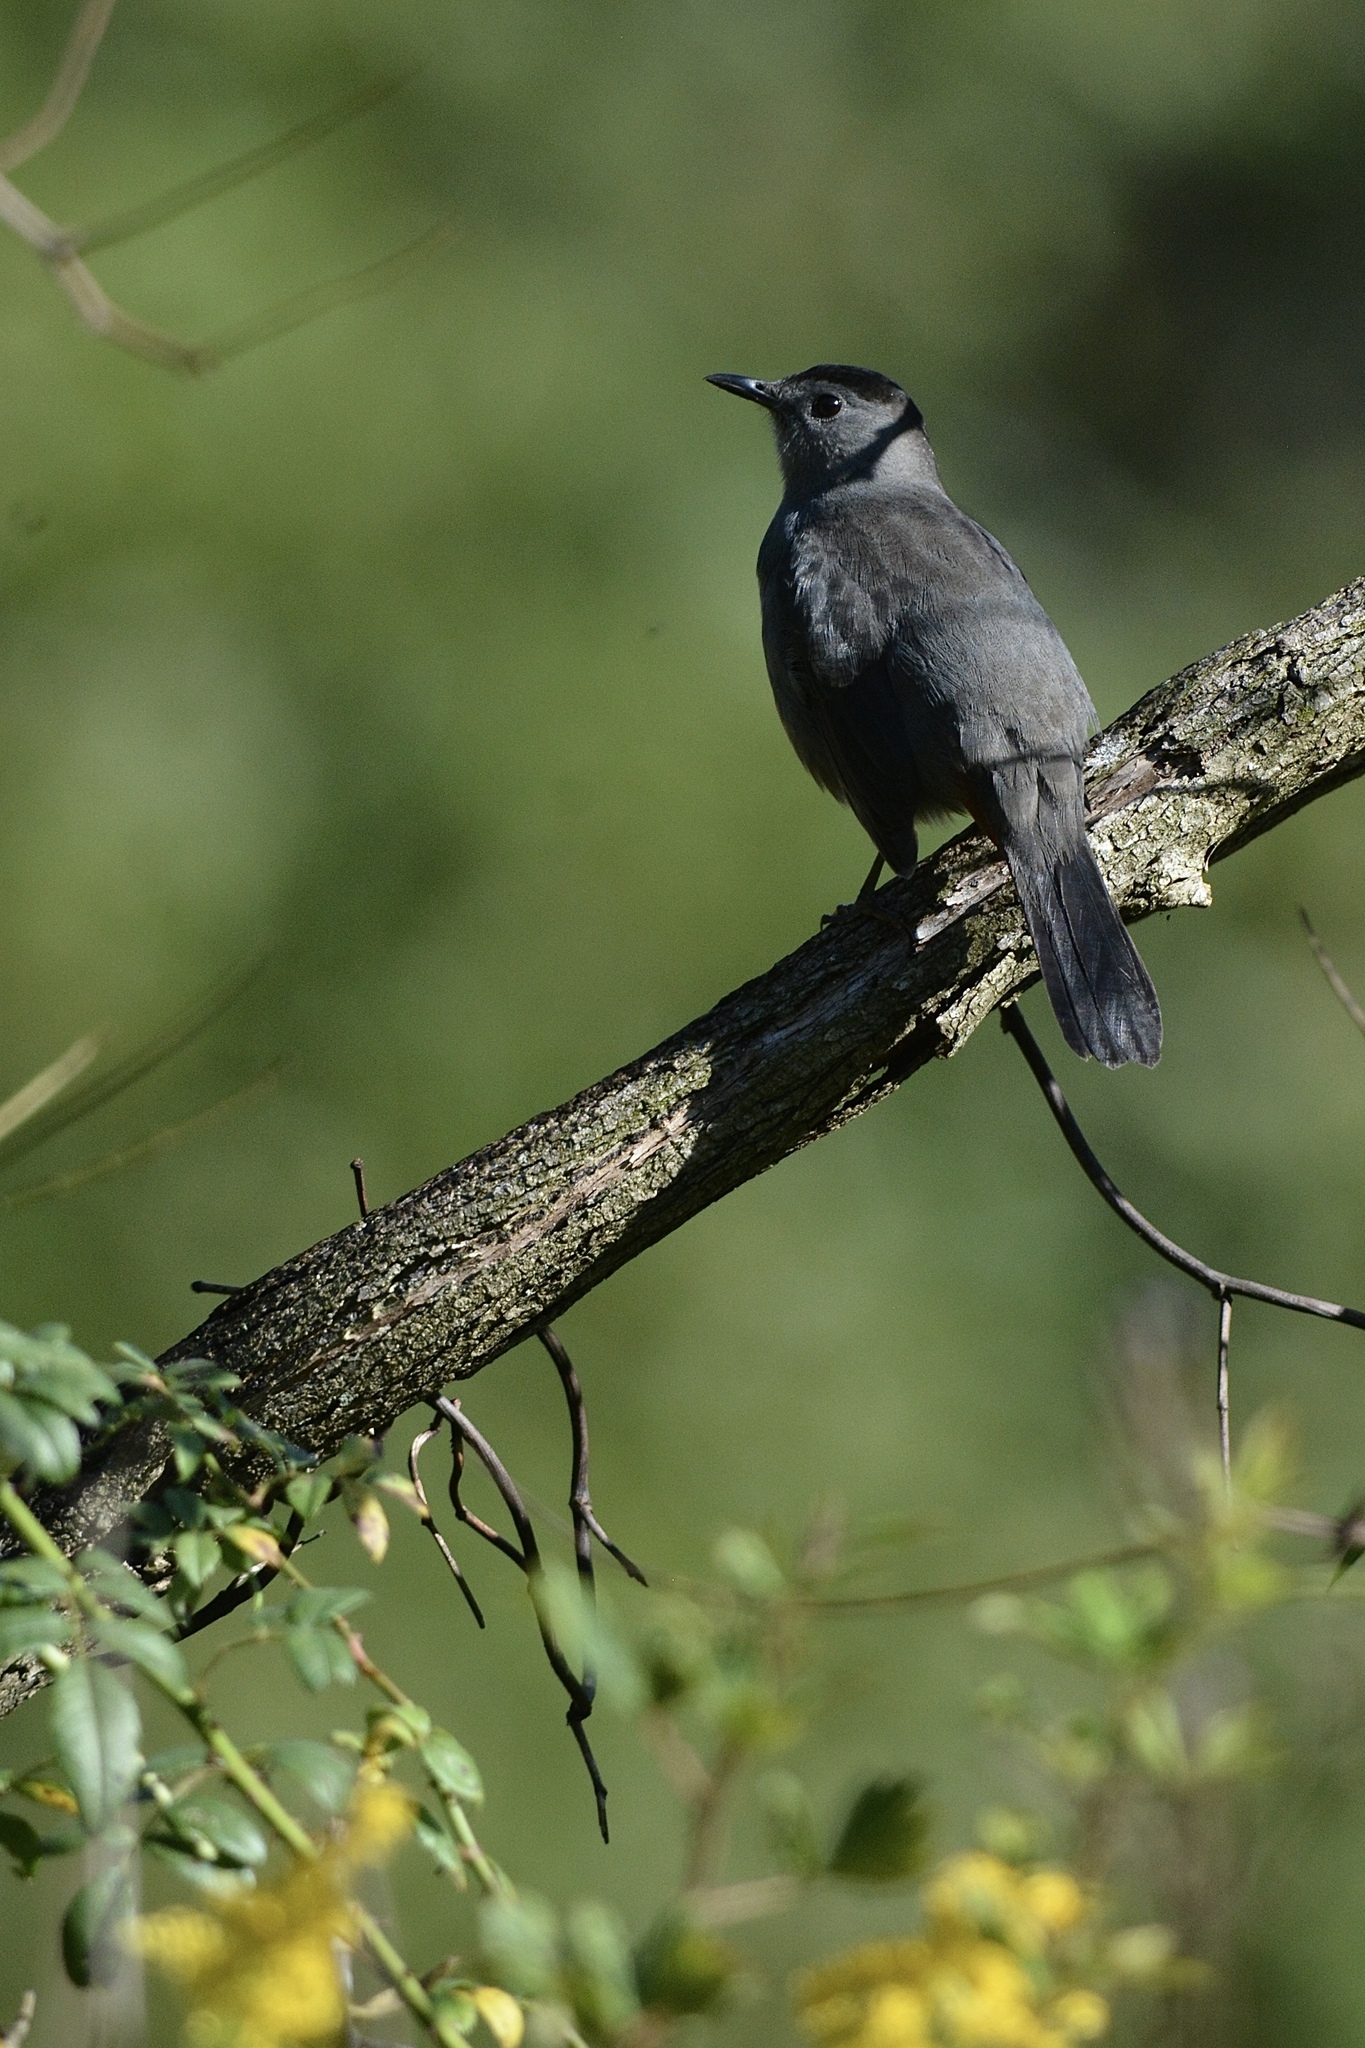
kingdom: Animalia
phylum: Chordata
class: Aves
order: Passeriformes
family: Mimidae
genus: Dumetella
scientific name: Dumetella carolinensis
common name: Gray catbird
